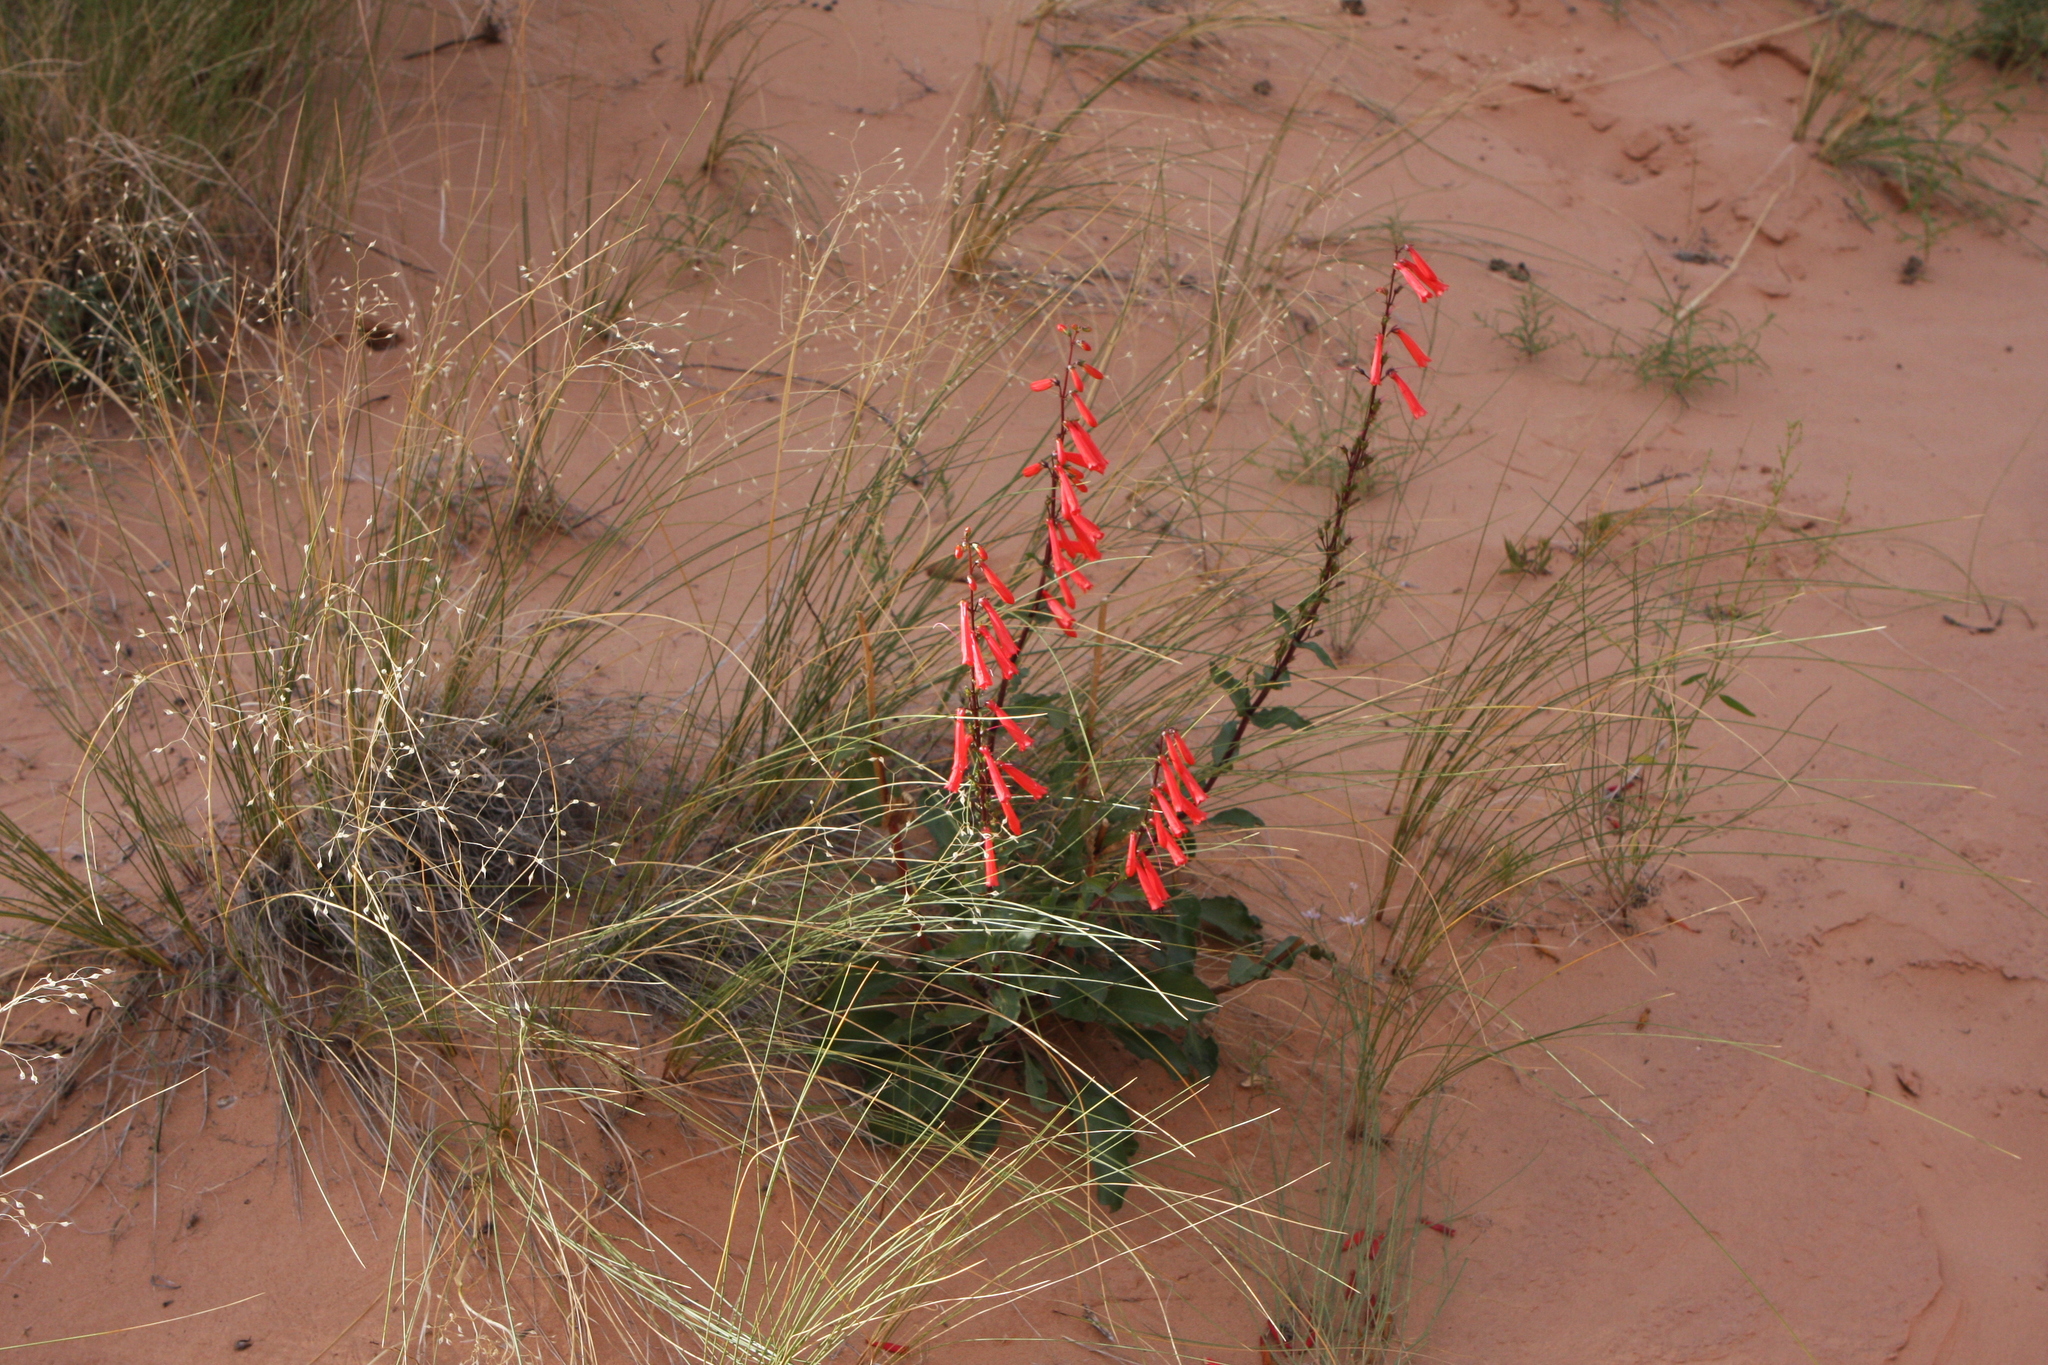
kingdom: Plantae
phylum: Tracheophyta
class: Magnoliopsida
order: Lamiales
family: Plantaginaceae
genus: Penstemon
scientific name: Penstemon eatonii
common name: Eaton's penstemon
